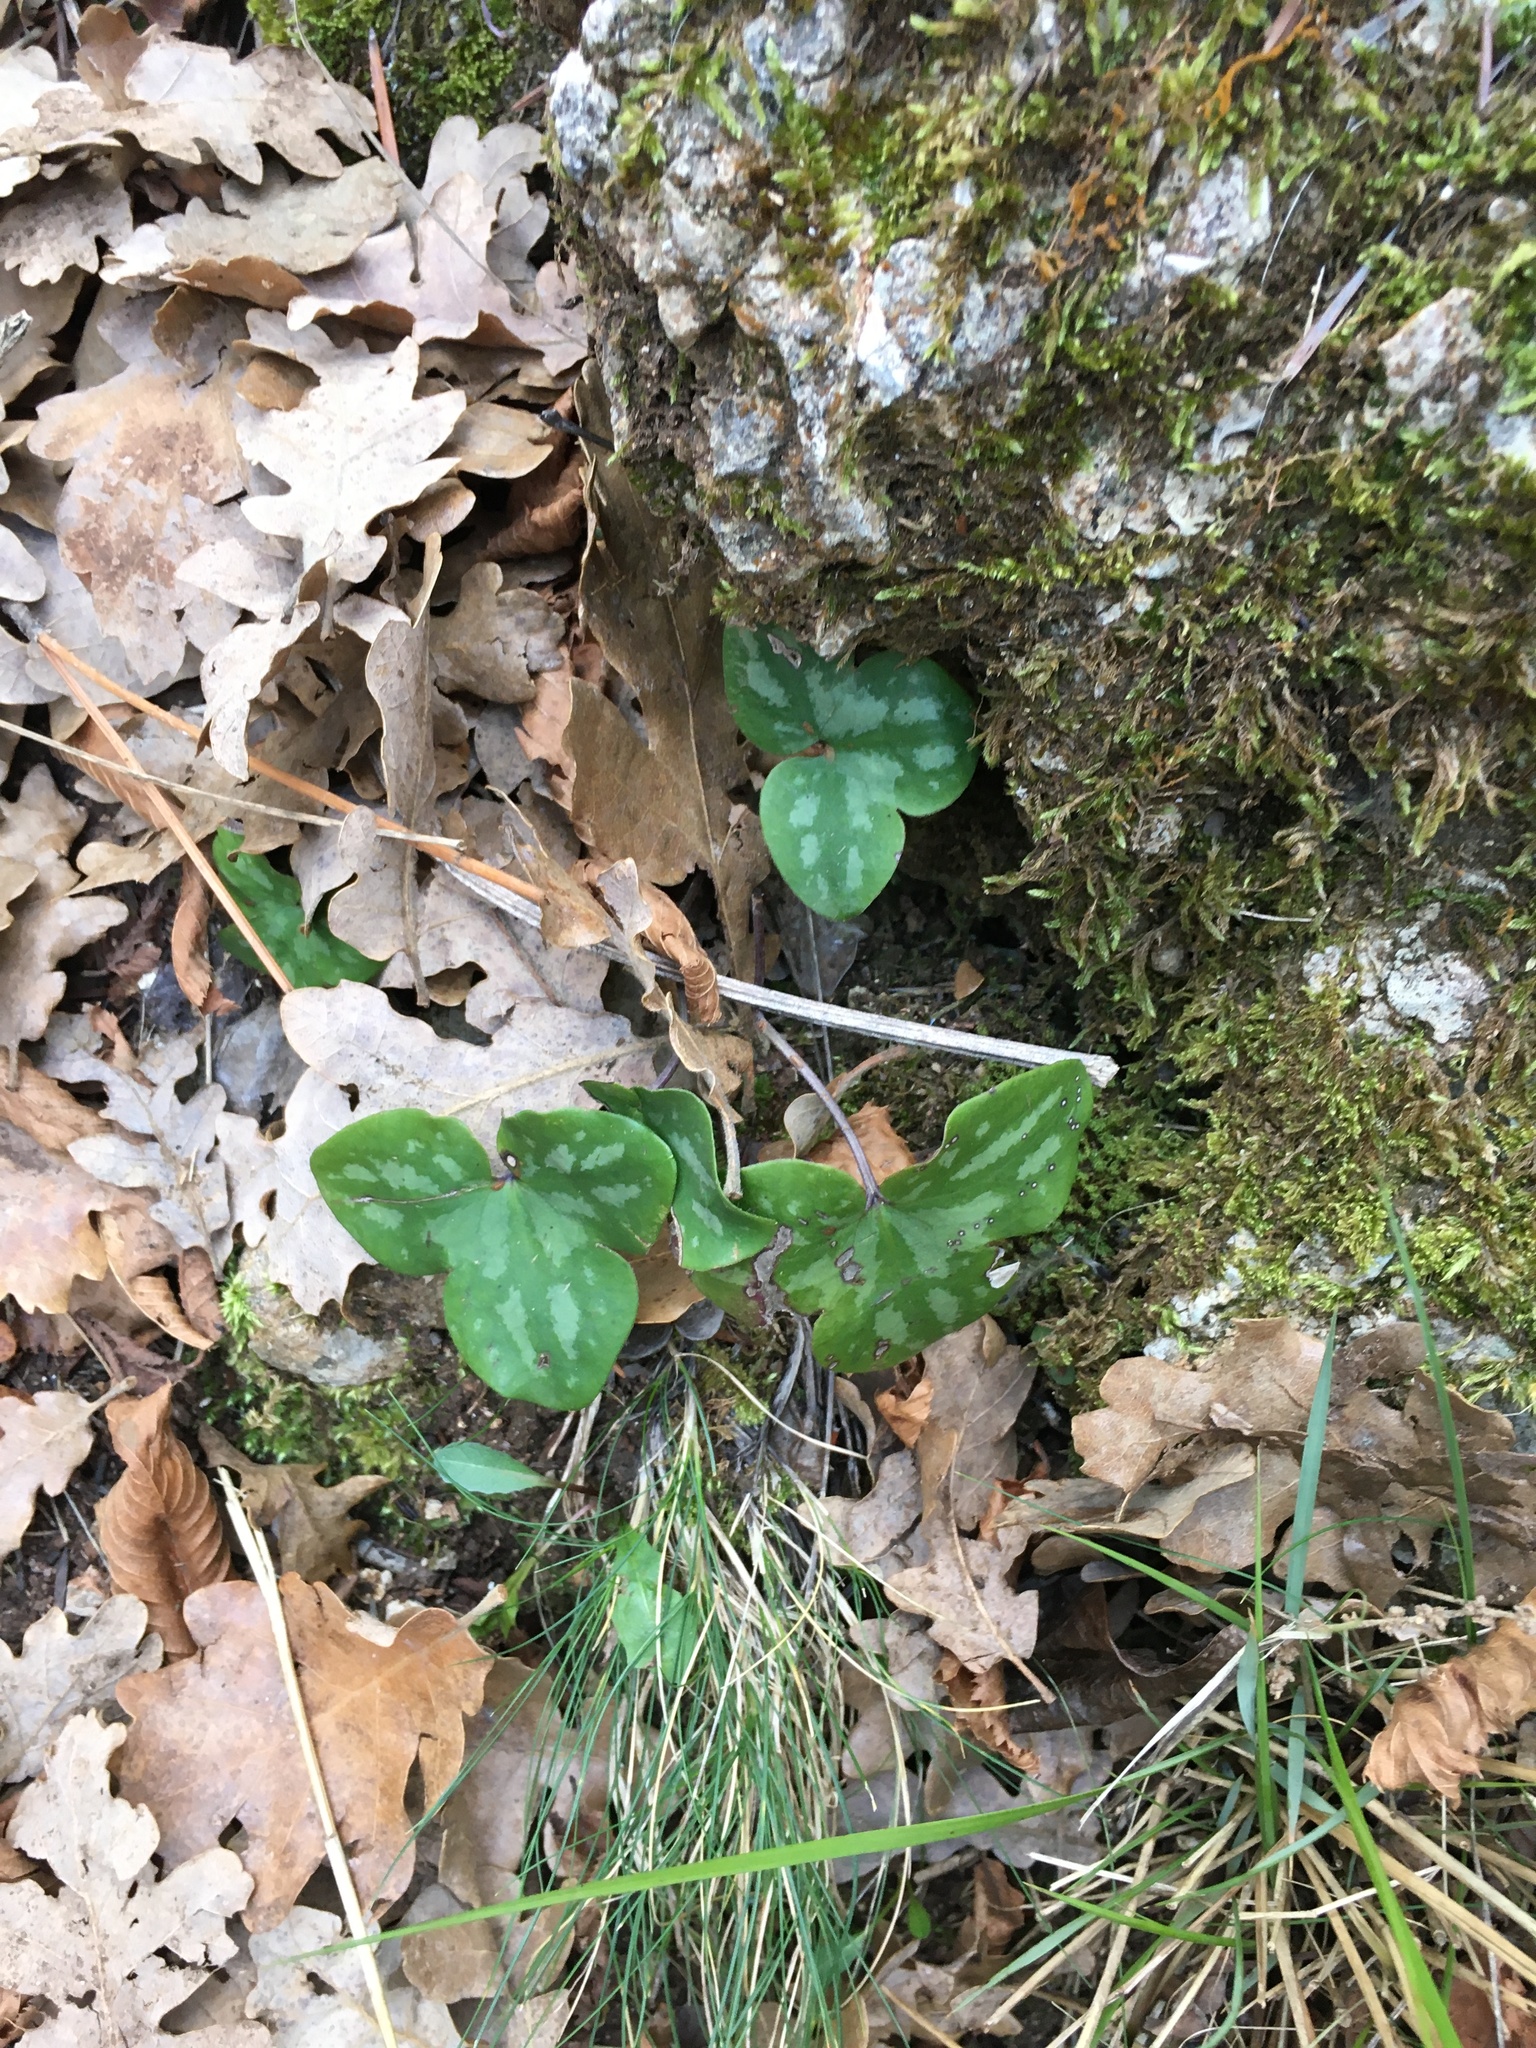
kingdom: Plantae
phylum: Tracheophyta
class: Magnoliopsida
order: Ranunculales
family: Ranunculaceae
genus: Hepatica
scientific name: Hepatica nobilis
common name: Liverleaf
